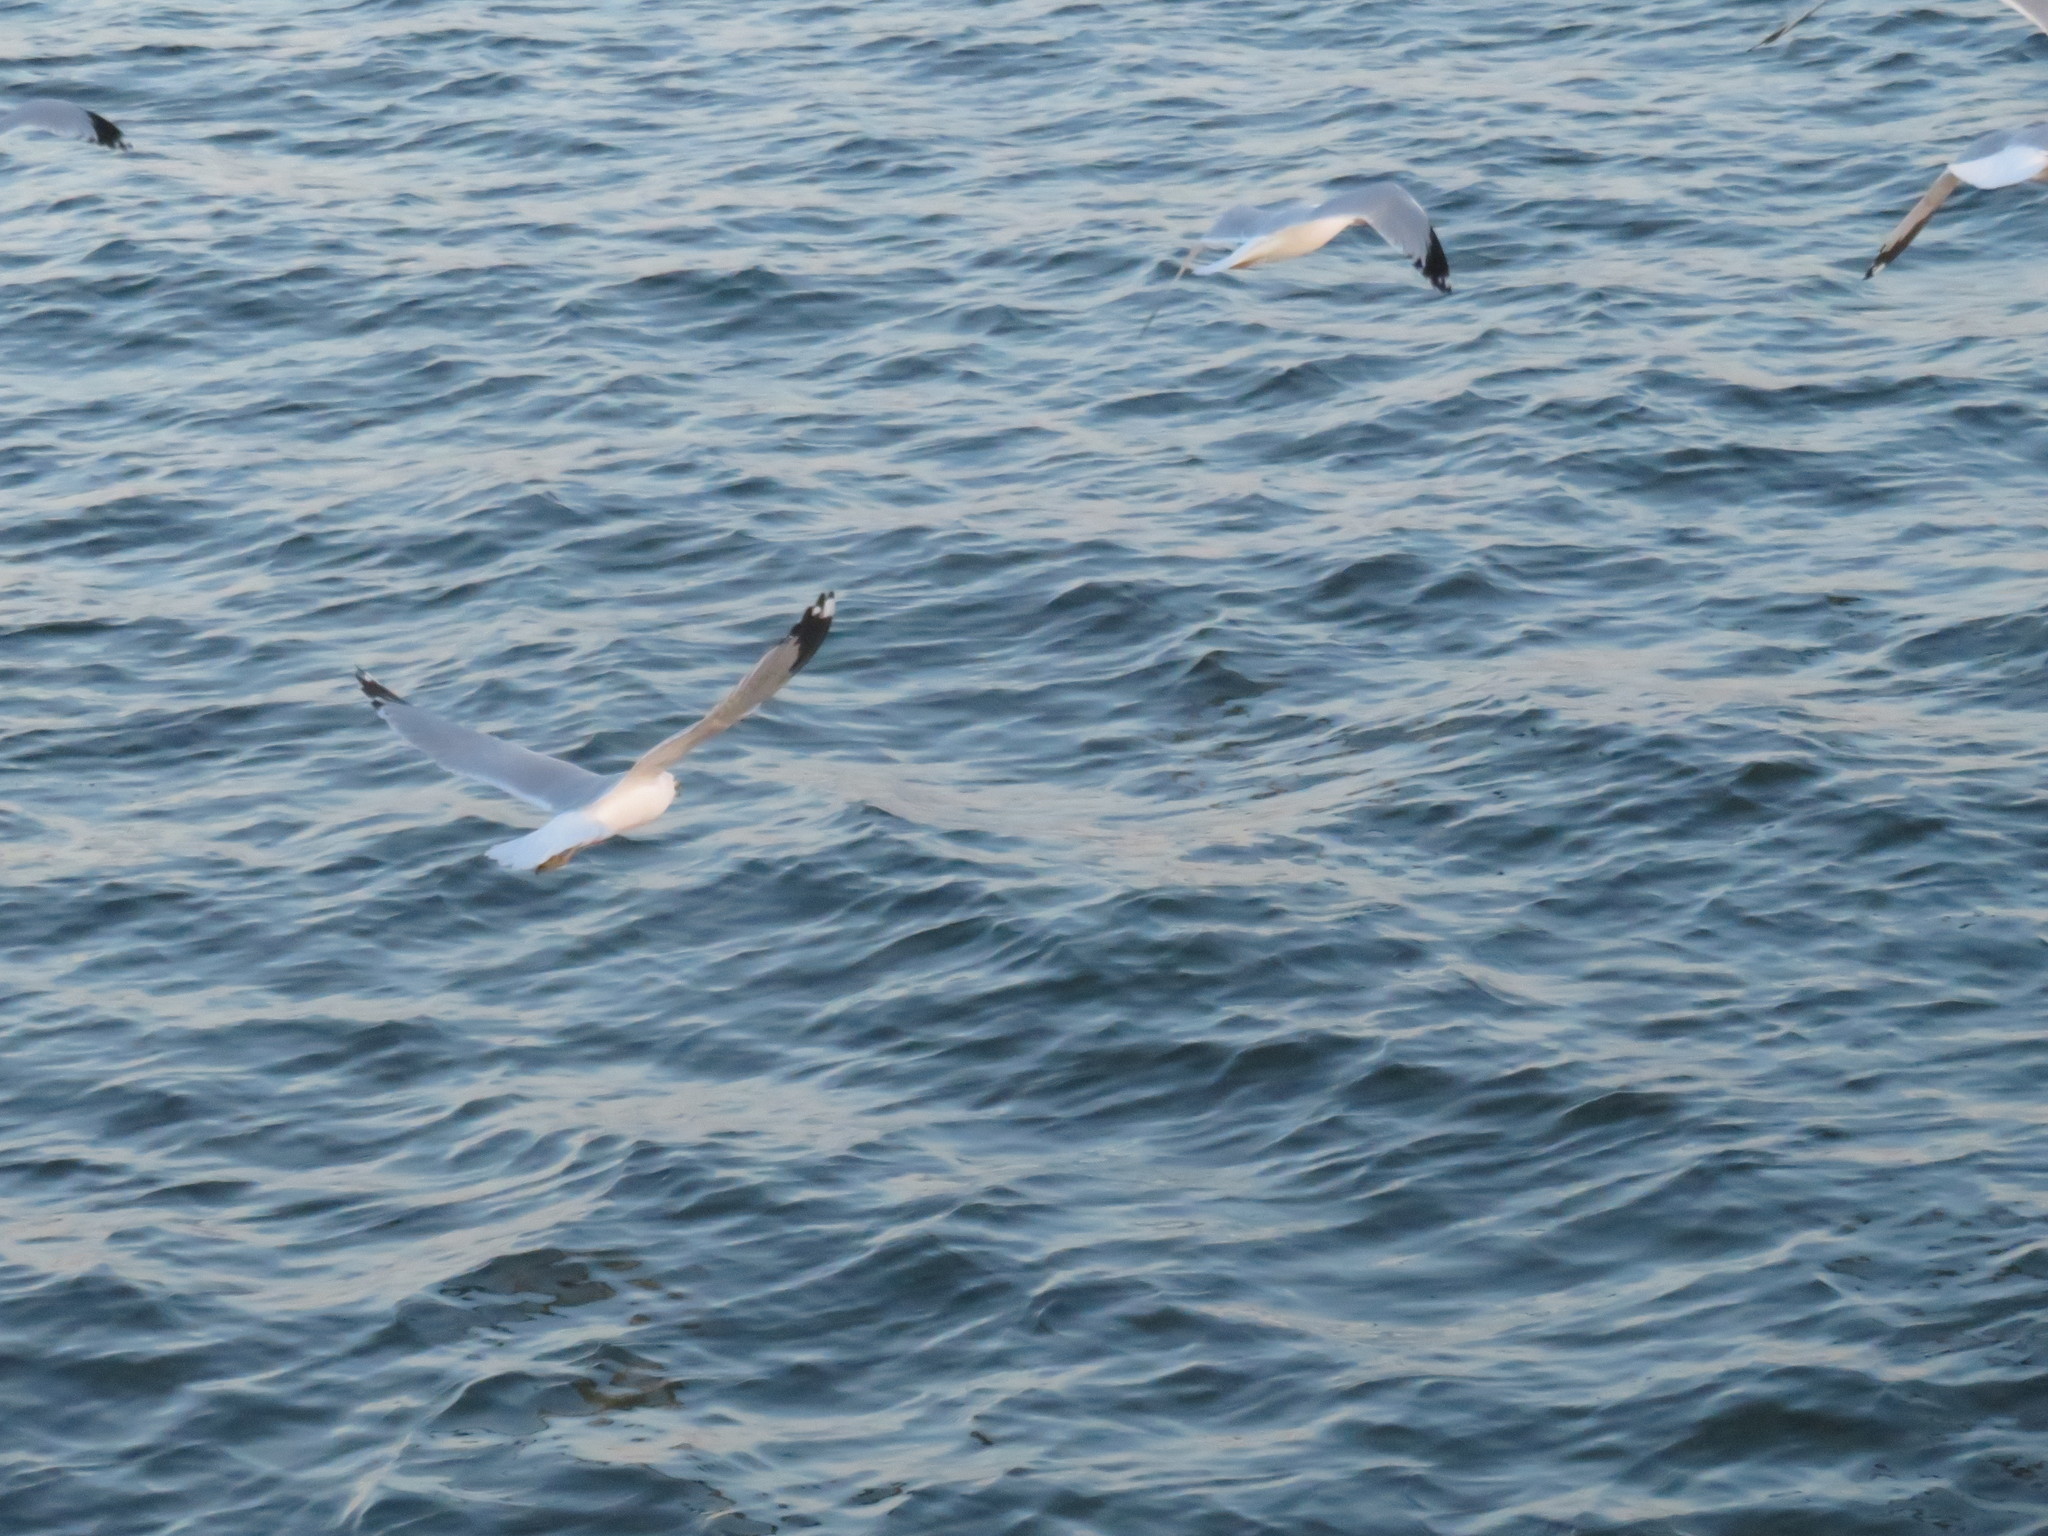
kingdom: Animalia
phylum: Chordata
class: Aves
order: Charadriiformes
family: Laridae
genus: Larus
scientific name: Larus delawarensis
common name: Ring-billed gull
